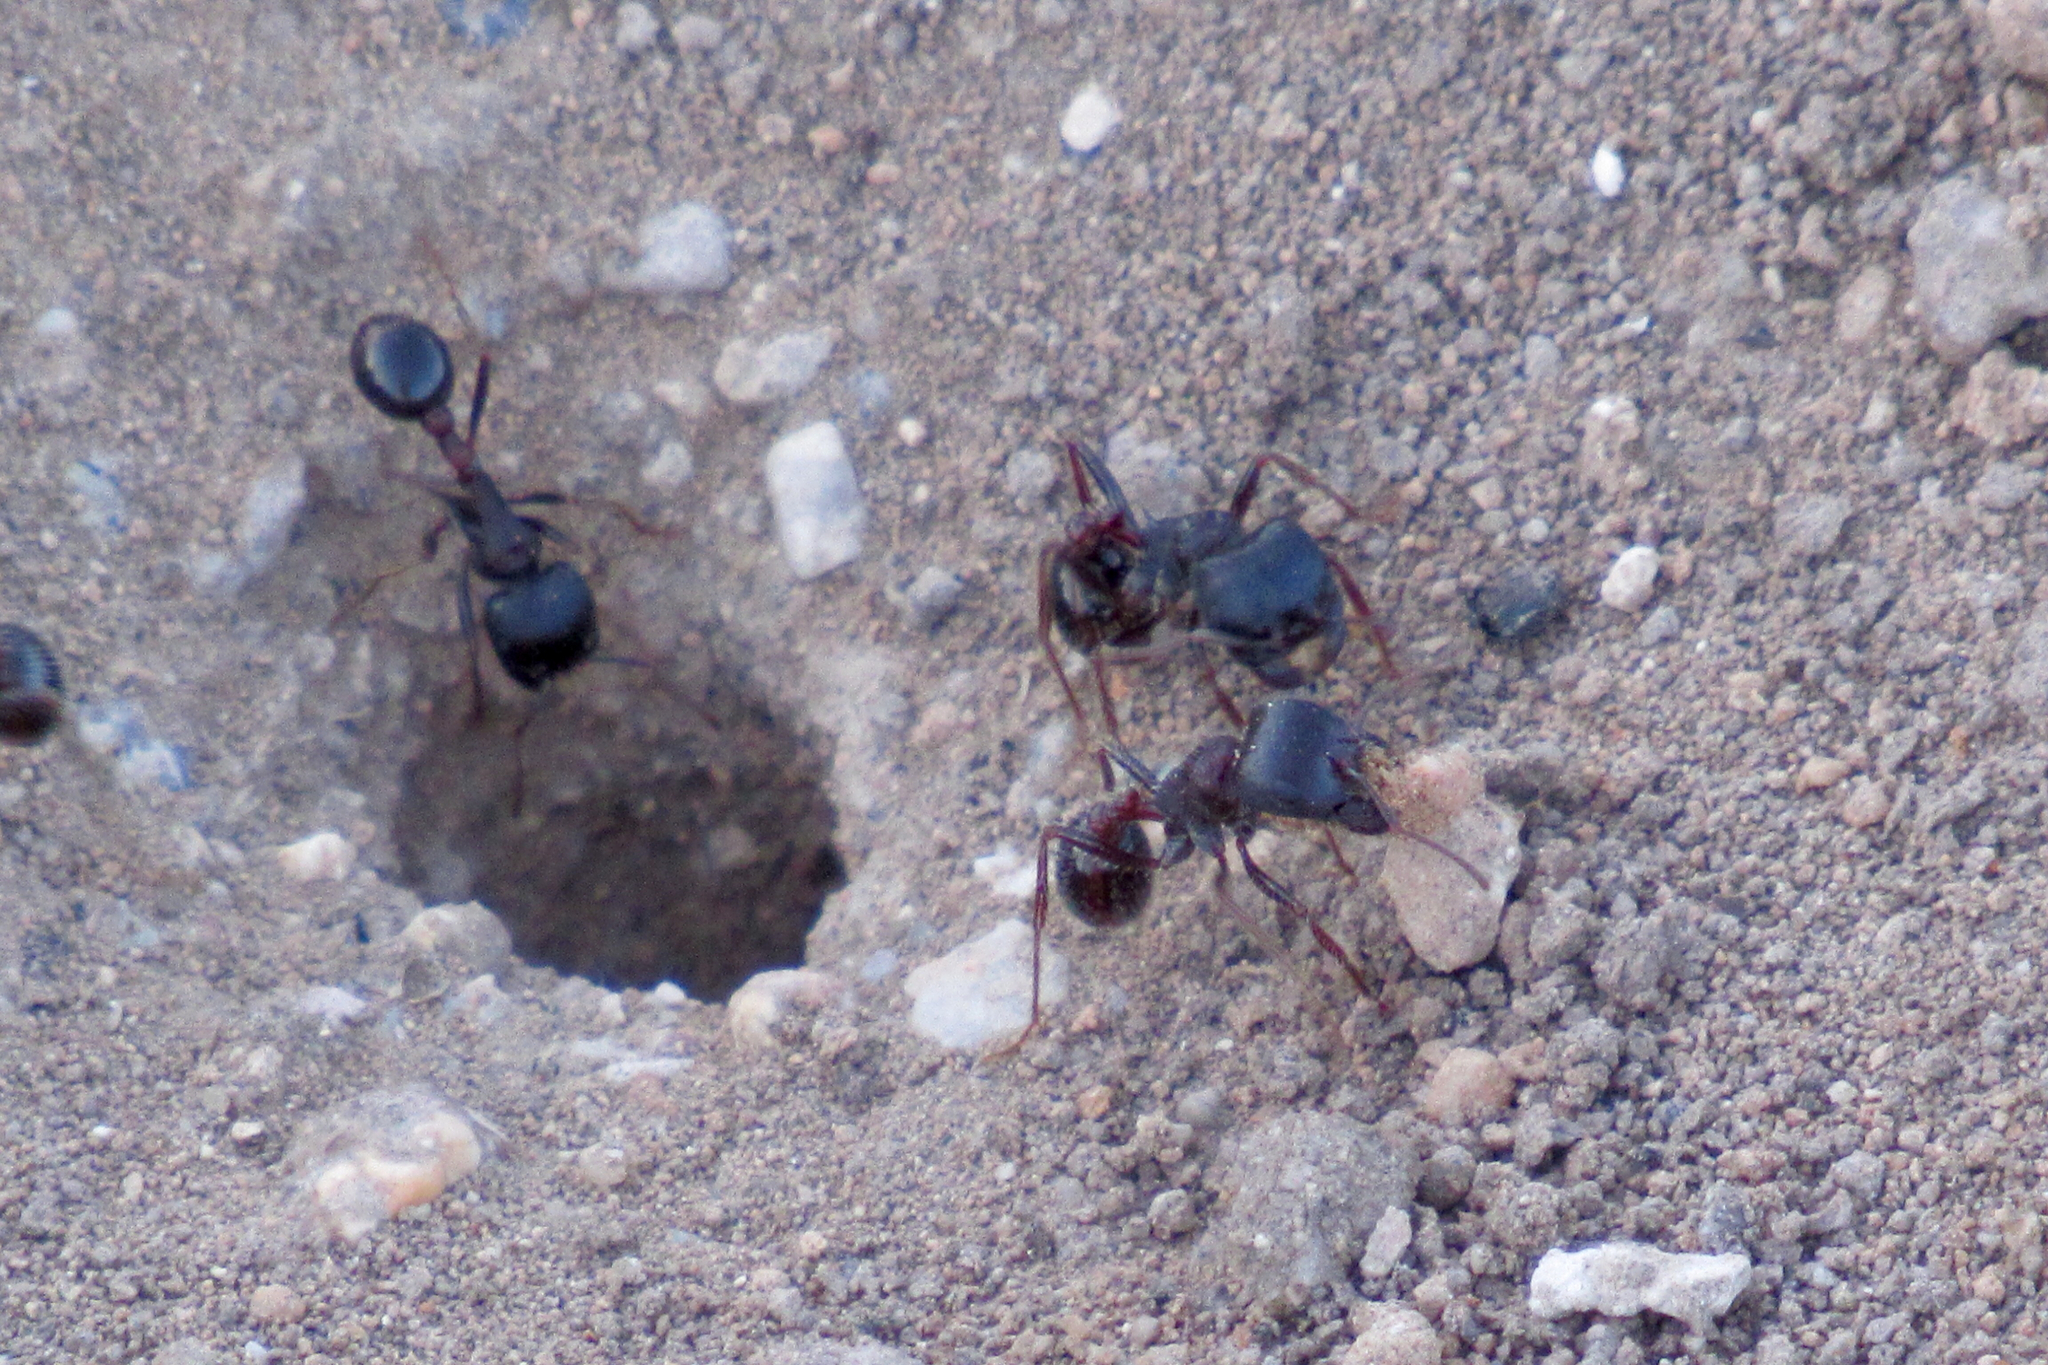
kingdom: Animalia
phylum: Arthropoda
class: Insecta
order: Hymenoptera
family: Formicidae
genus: Pogonomyrmex
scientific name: Pogonomyrmex rugosus
